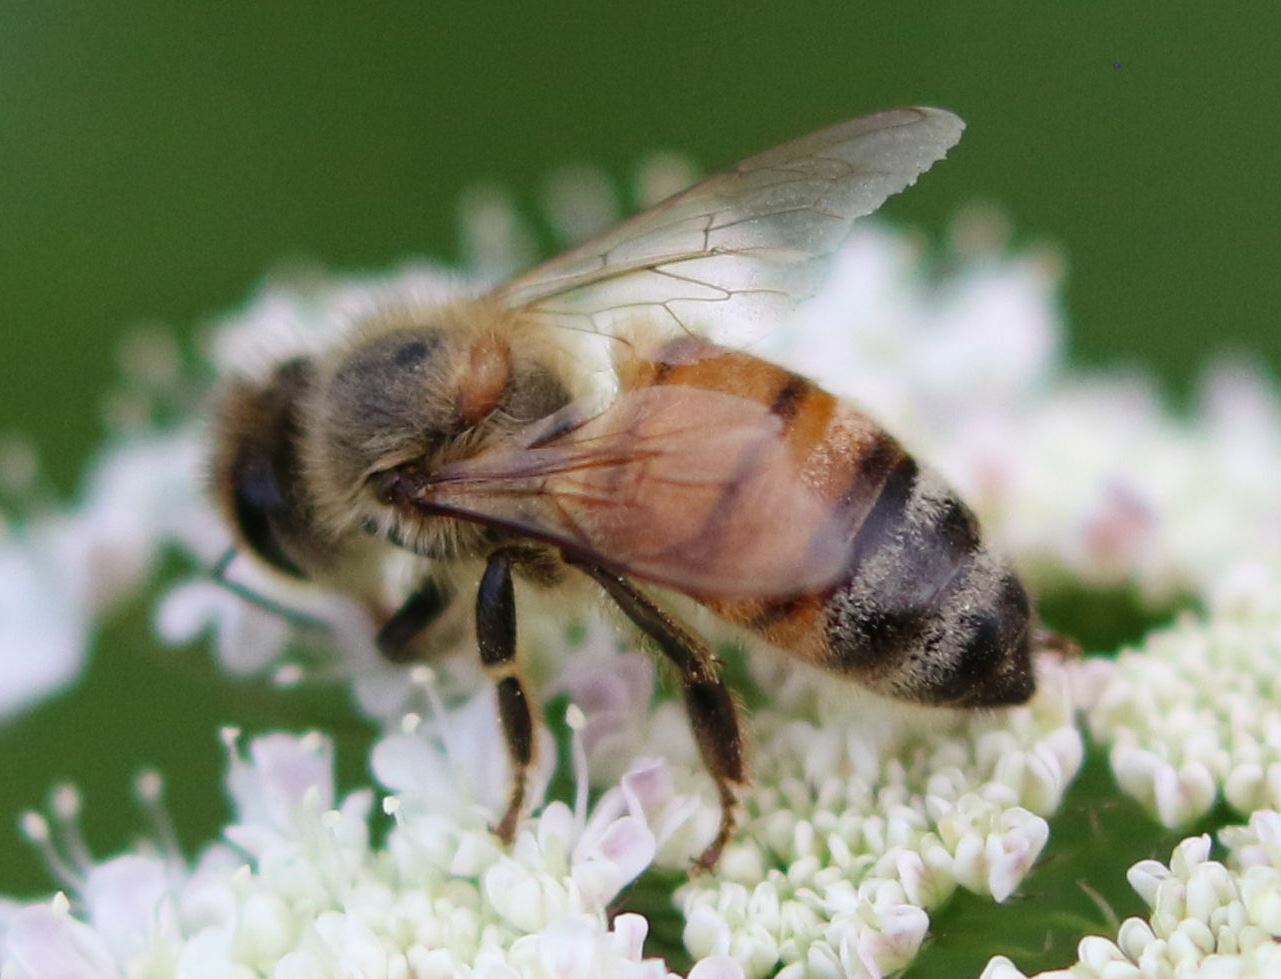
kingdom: Animalia
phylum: Arthropoda
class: Insecta
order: Hymenoptera
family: Apidae
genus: Apis
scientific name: Apis mellifera
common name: Honey bee
